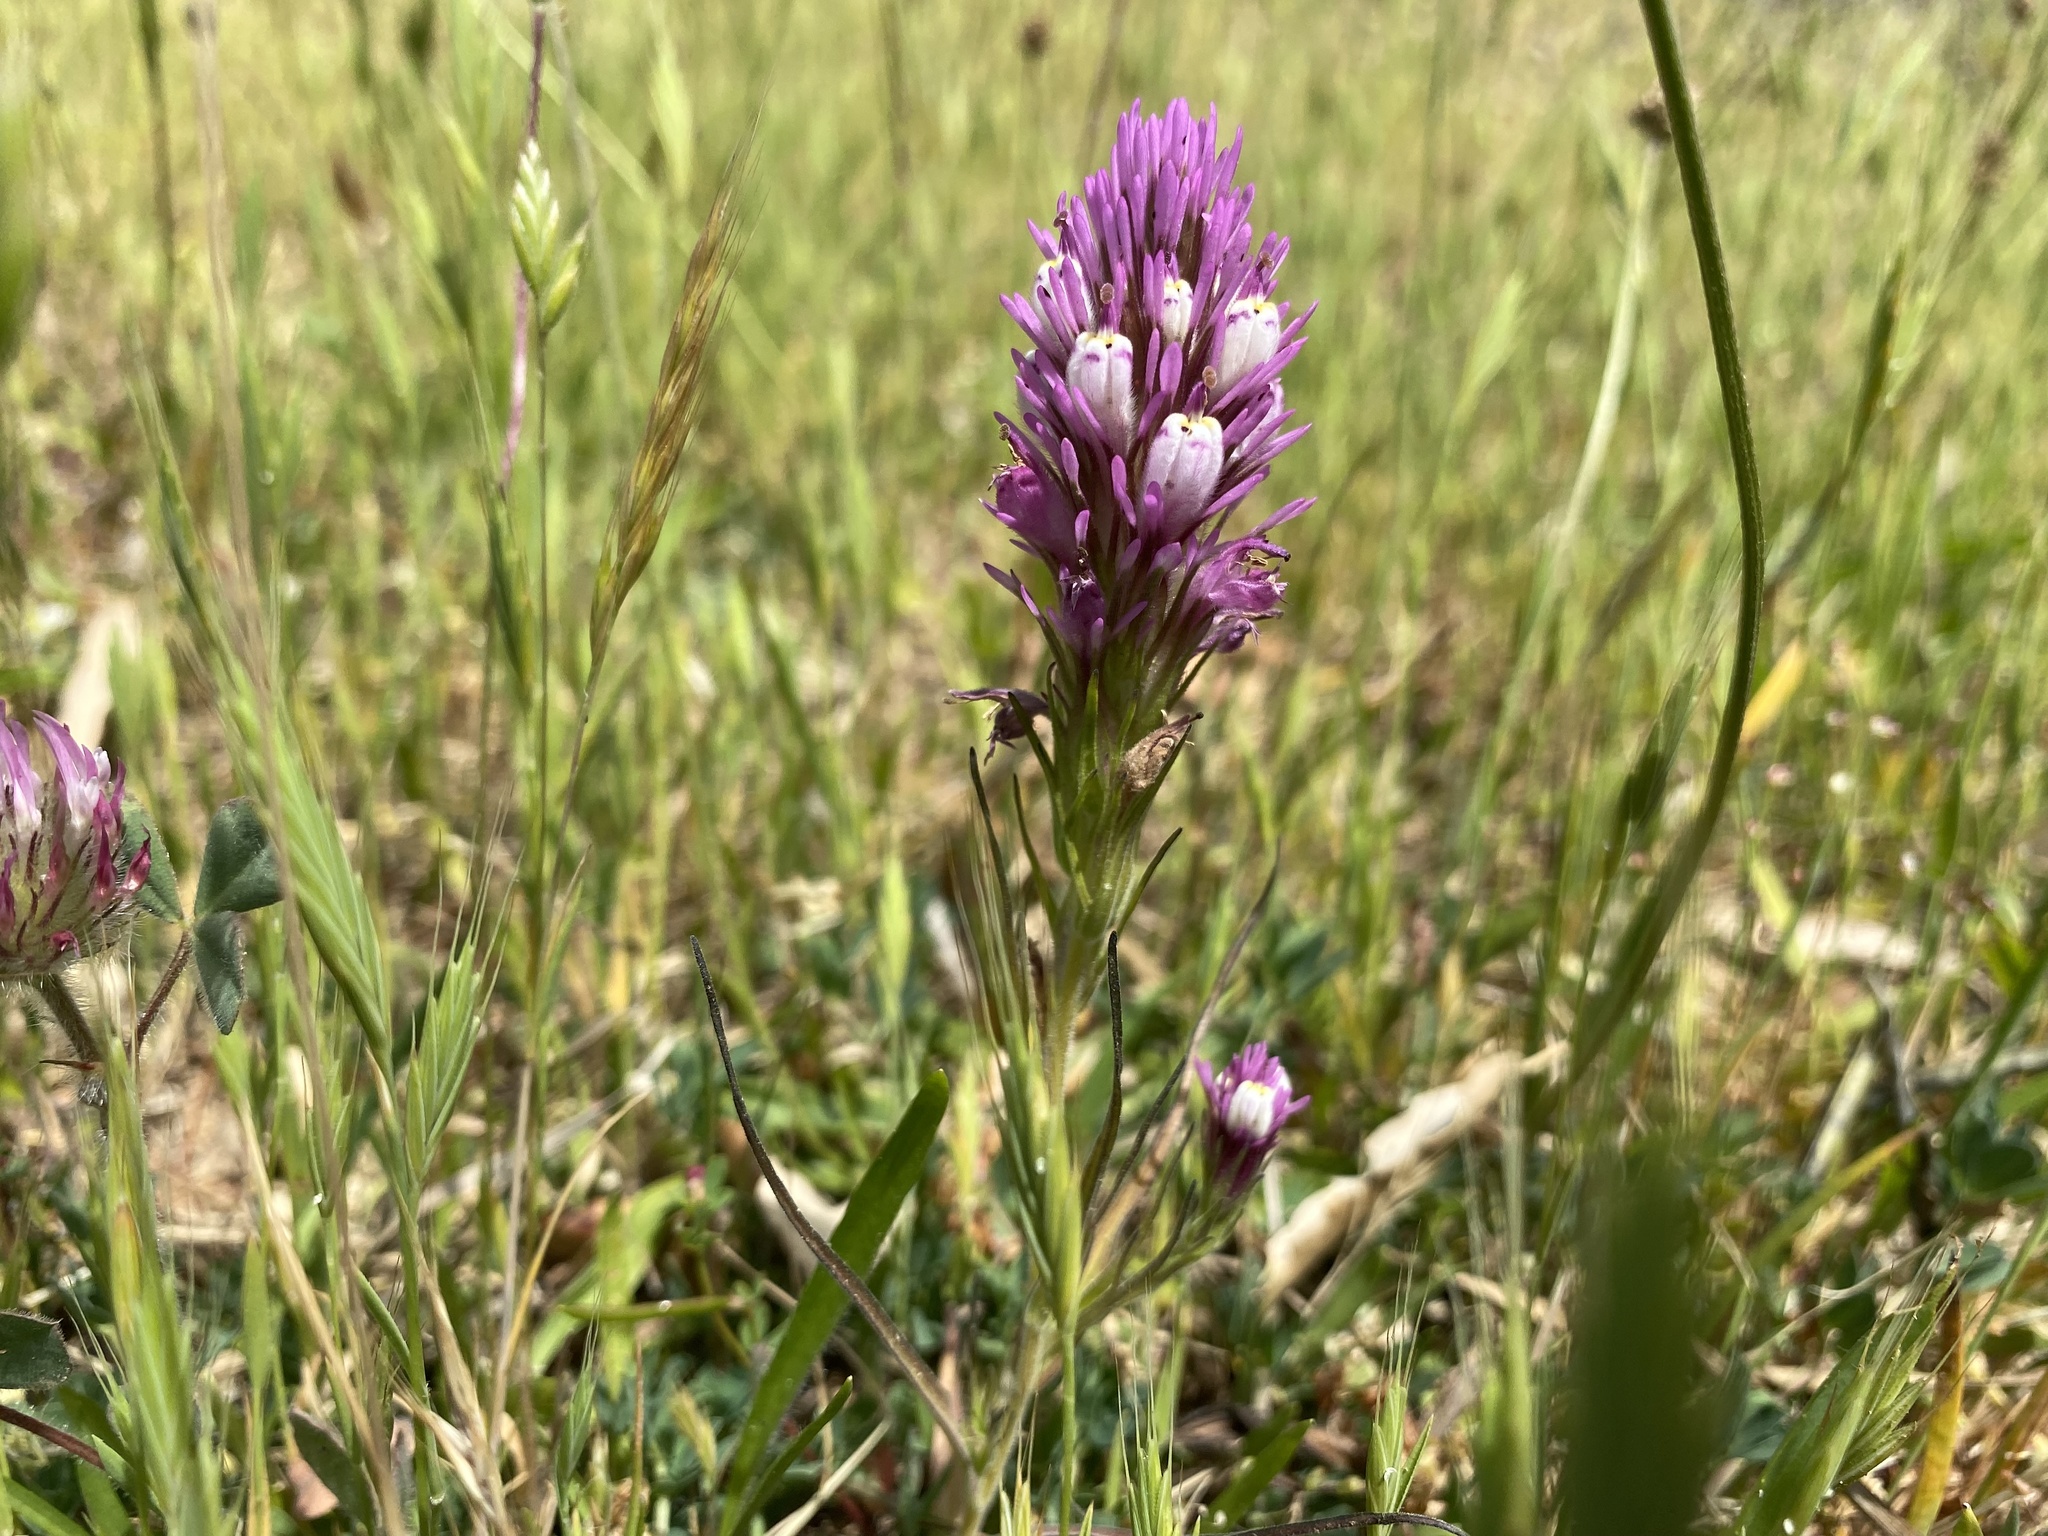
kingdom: Plantae
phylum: Tracheophyta
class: Magnoliopsida
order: Lamiales
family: Orobanchaceae
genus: Castilleja
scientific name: Castilleja densiflora
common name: Dense-flower indian paintbrush
